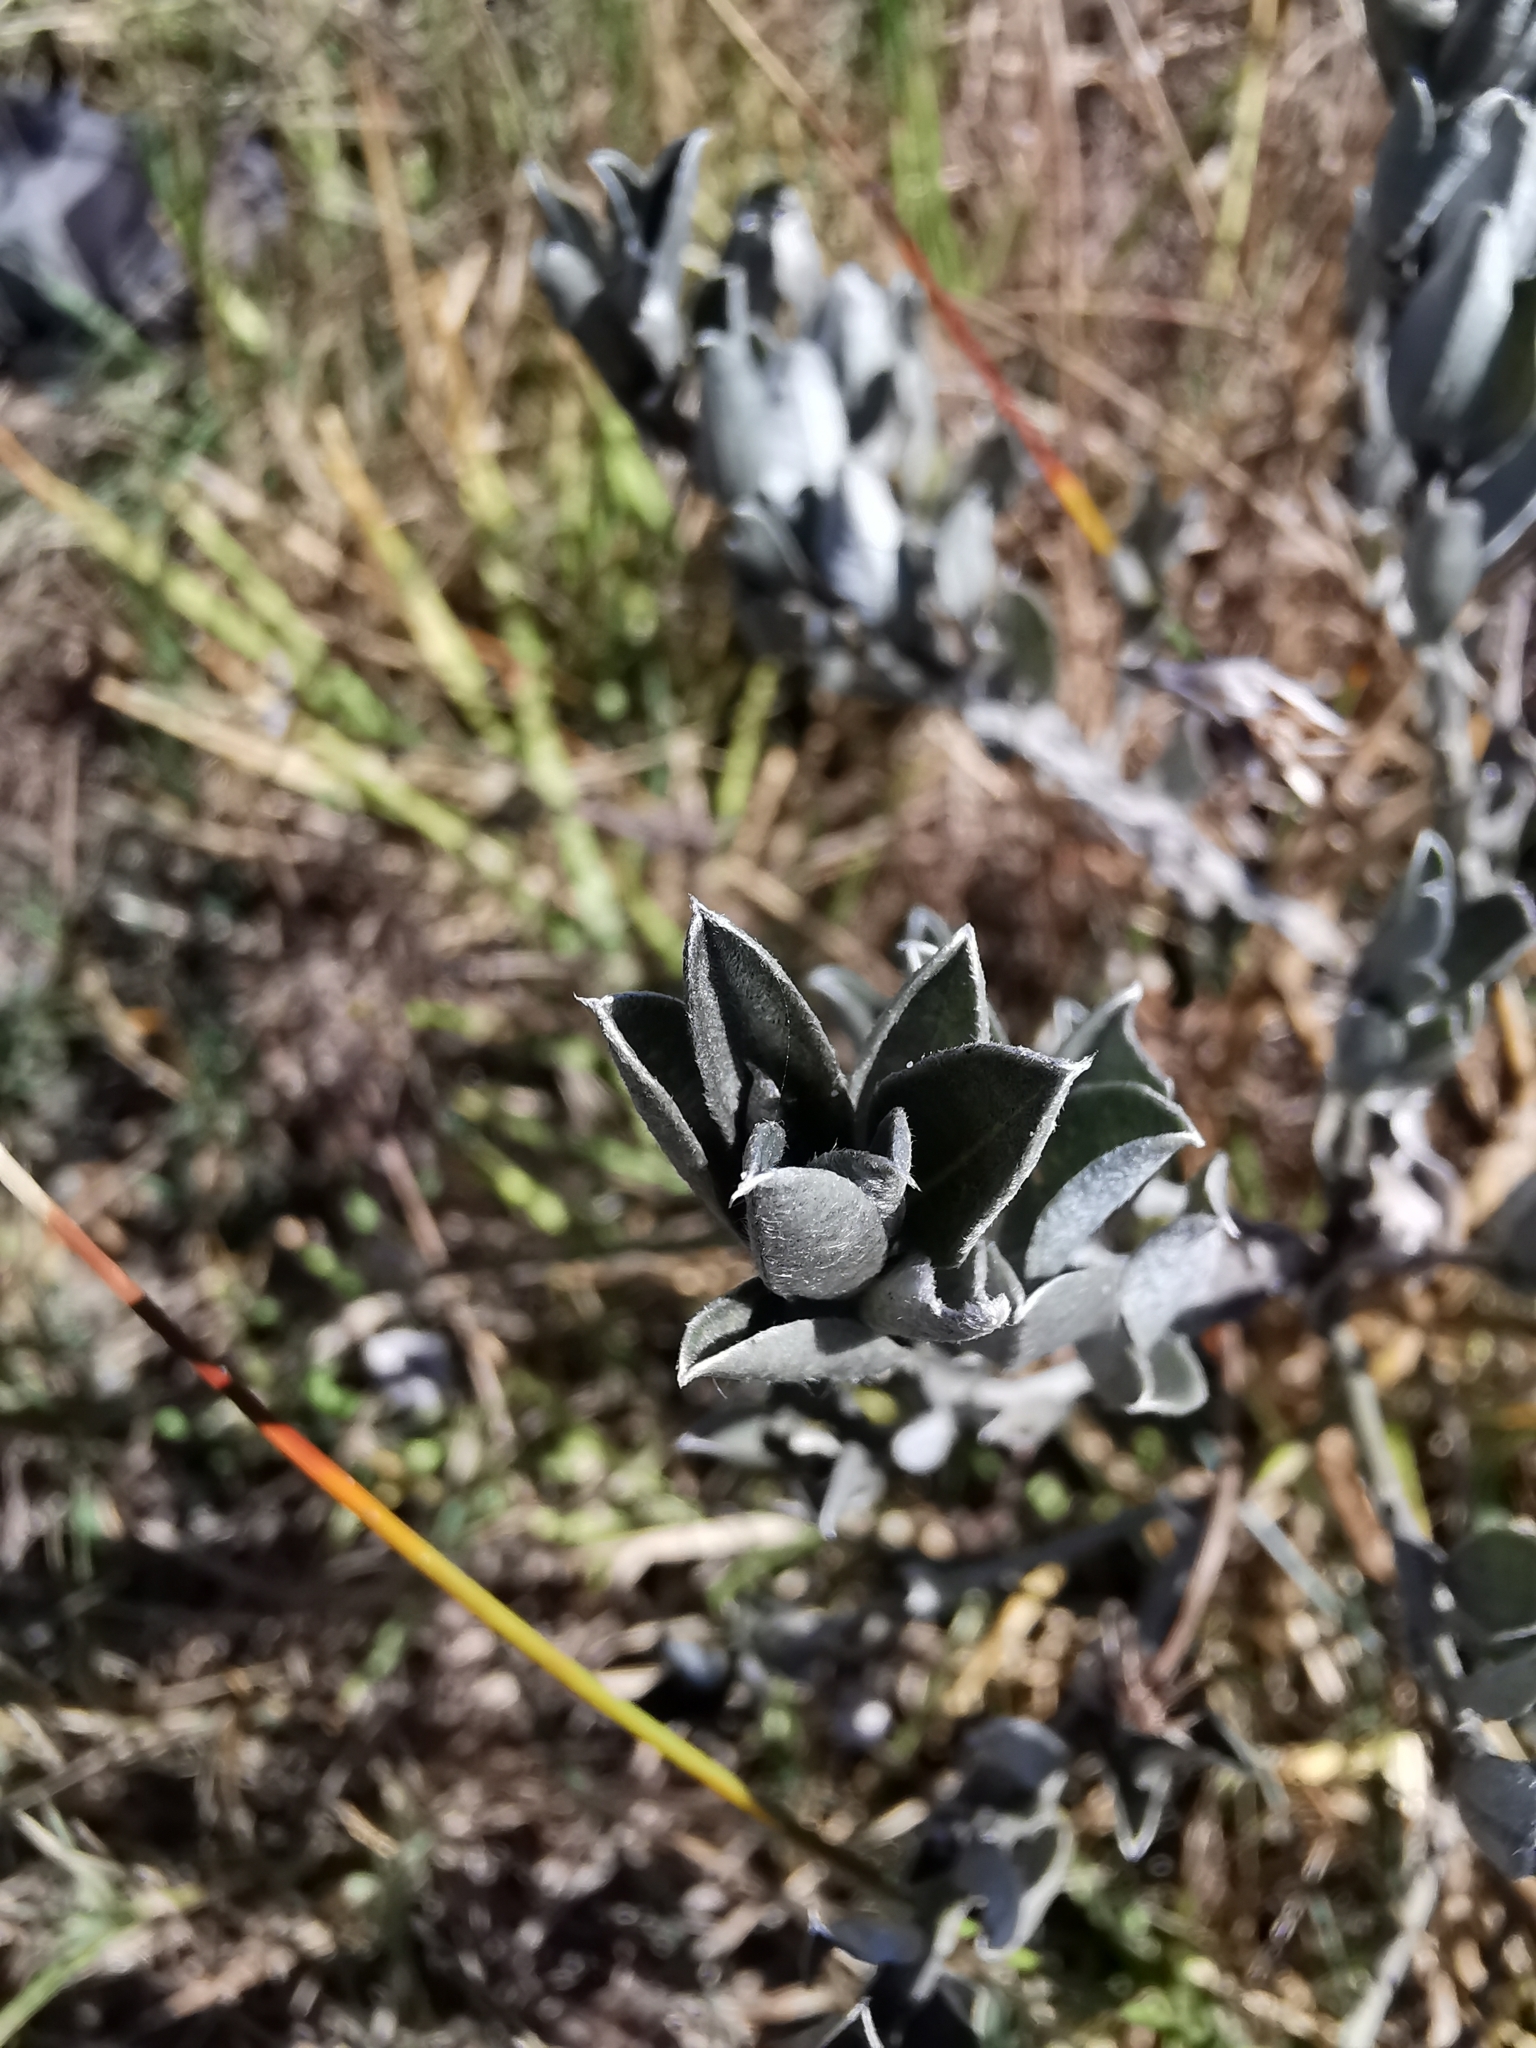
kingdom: Plantae
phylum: Tracheophyta
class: Magnoliopsida
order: Fabales
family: Fabaceae
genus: Podalyria
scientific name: Podalyria sericea
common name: Silver podalyria
